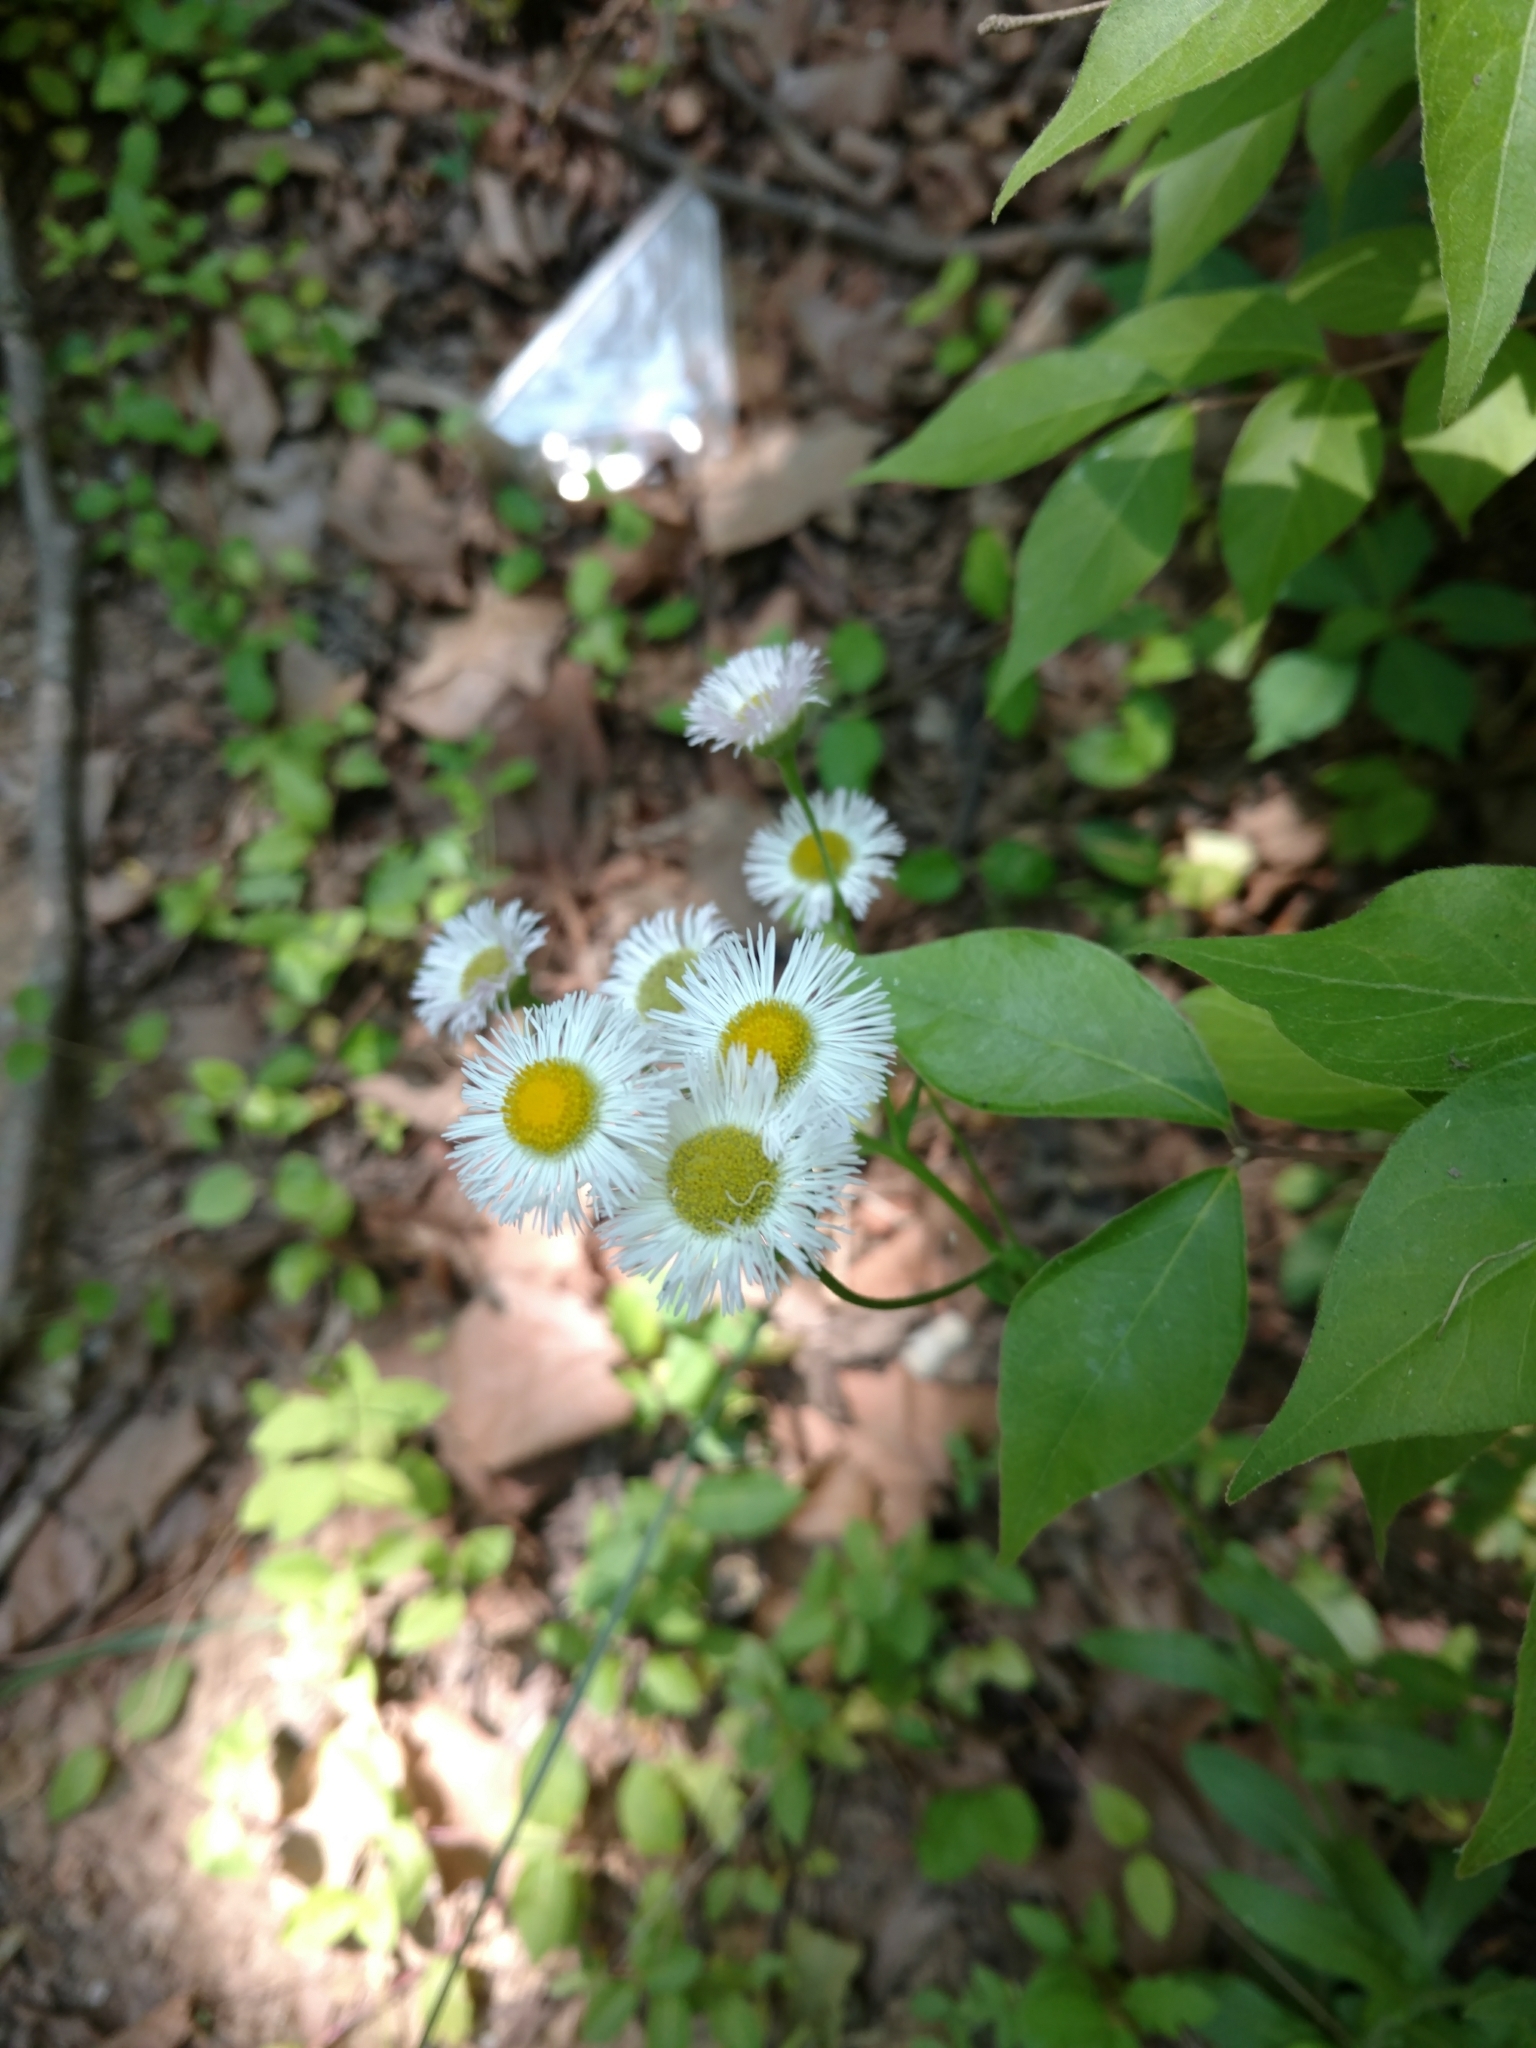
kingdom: Plantae
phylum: Tracheophyta
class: Magnoliopsida
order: Asterales
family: Asteraceae
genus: Erigeron
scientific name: Erigeron philadelphicus
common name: Robin's-plantain
